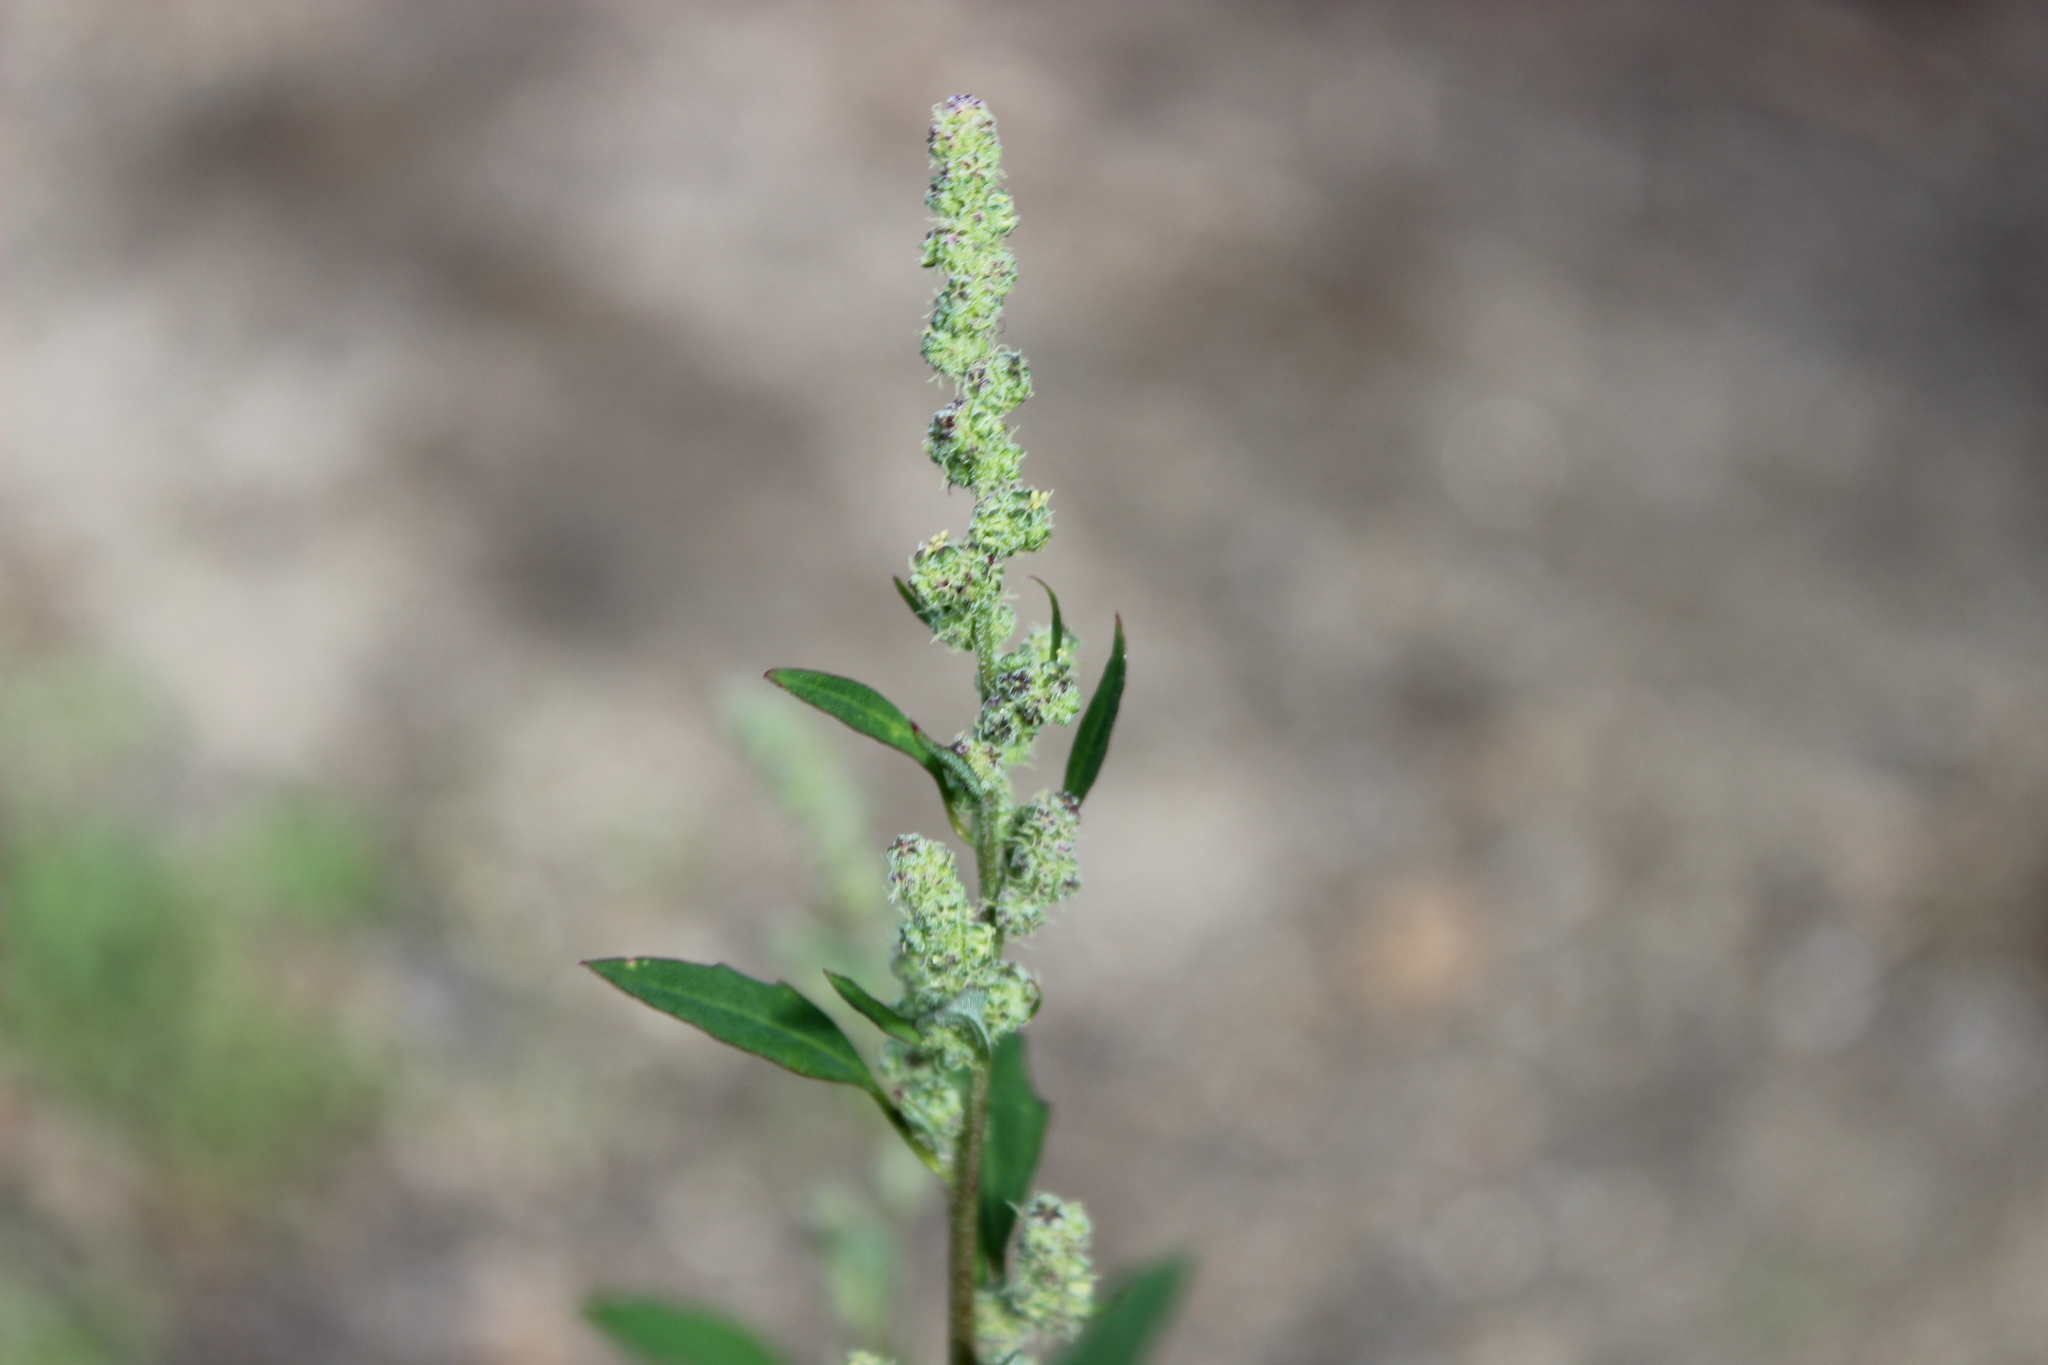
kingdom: Plantae
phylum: Tracheophyta
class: Magnoliopsida
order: Caryophyllales
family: Amaranthaceae
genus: Chenopodium
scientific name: Chenopodium album
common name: Fat-hen
